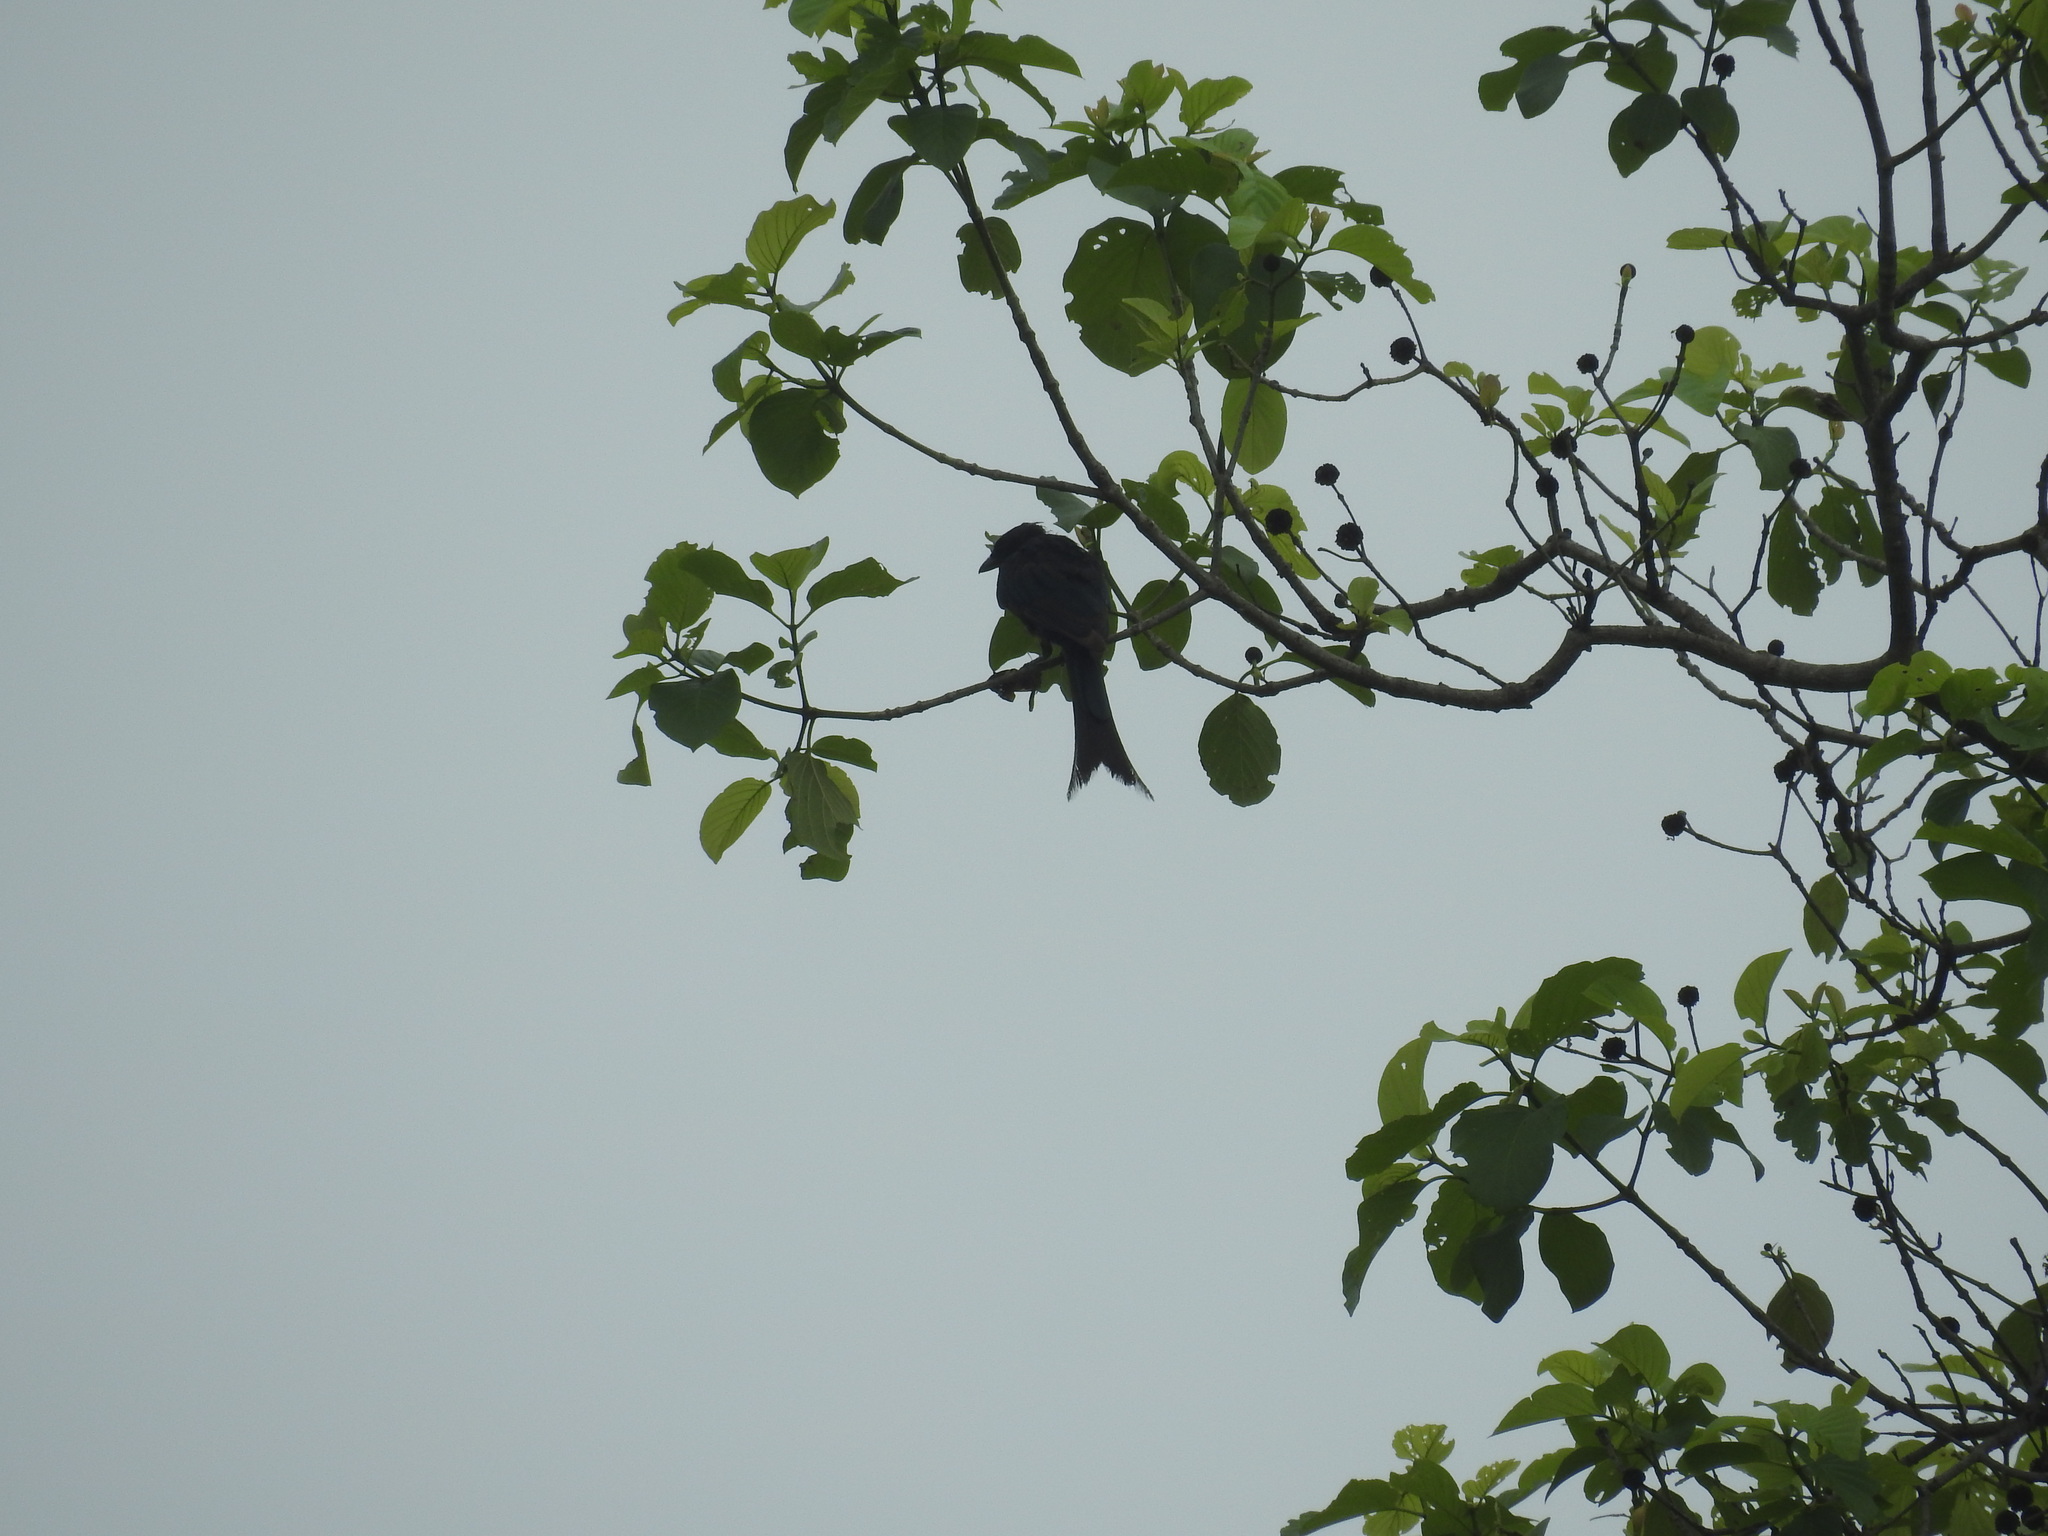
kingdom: Animalia
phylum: Chordata
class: Aves
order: Passeriformes
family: Dicruridae
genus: Dicrurus
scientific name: Dicrurus macrocercus
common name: Black drongo
